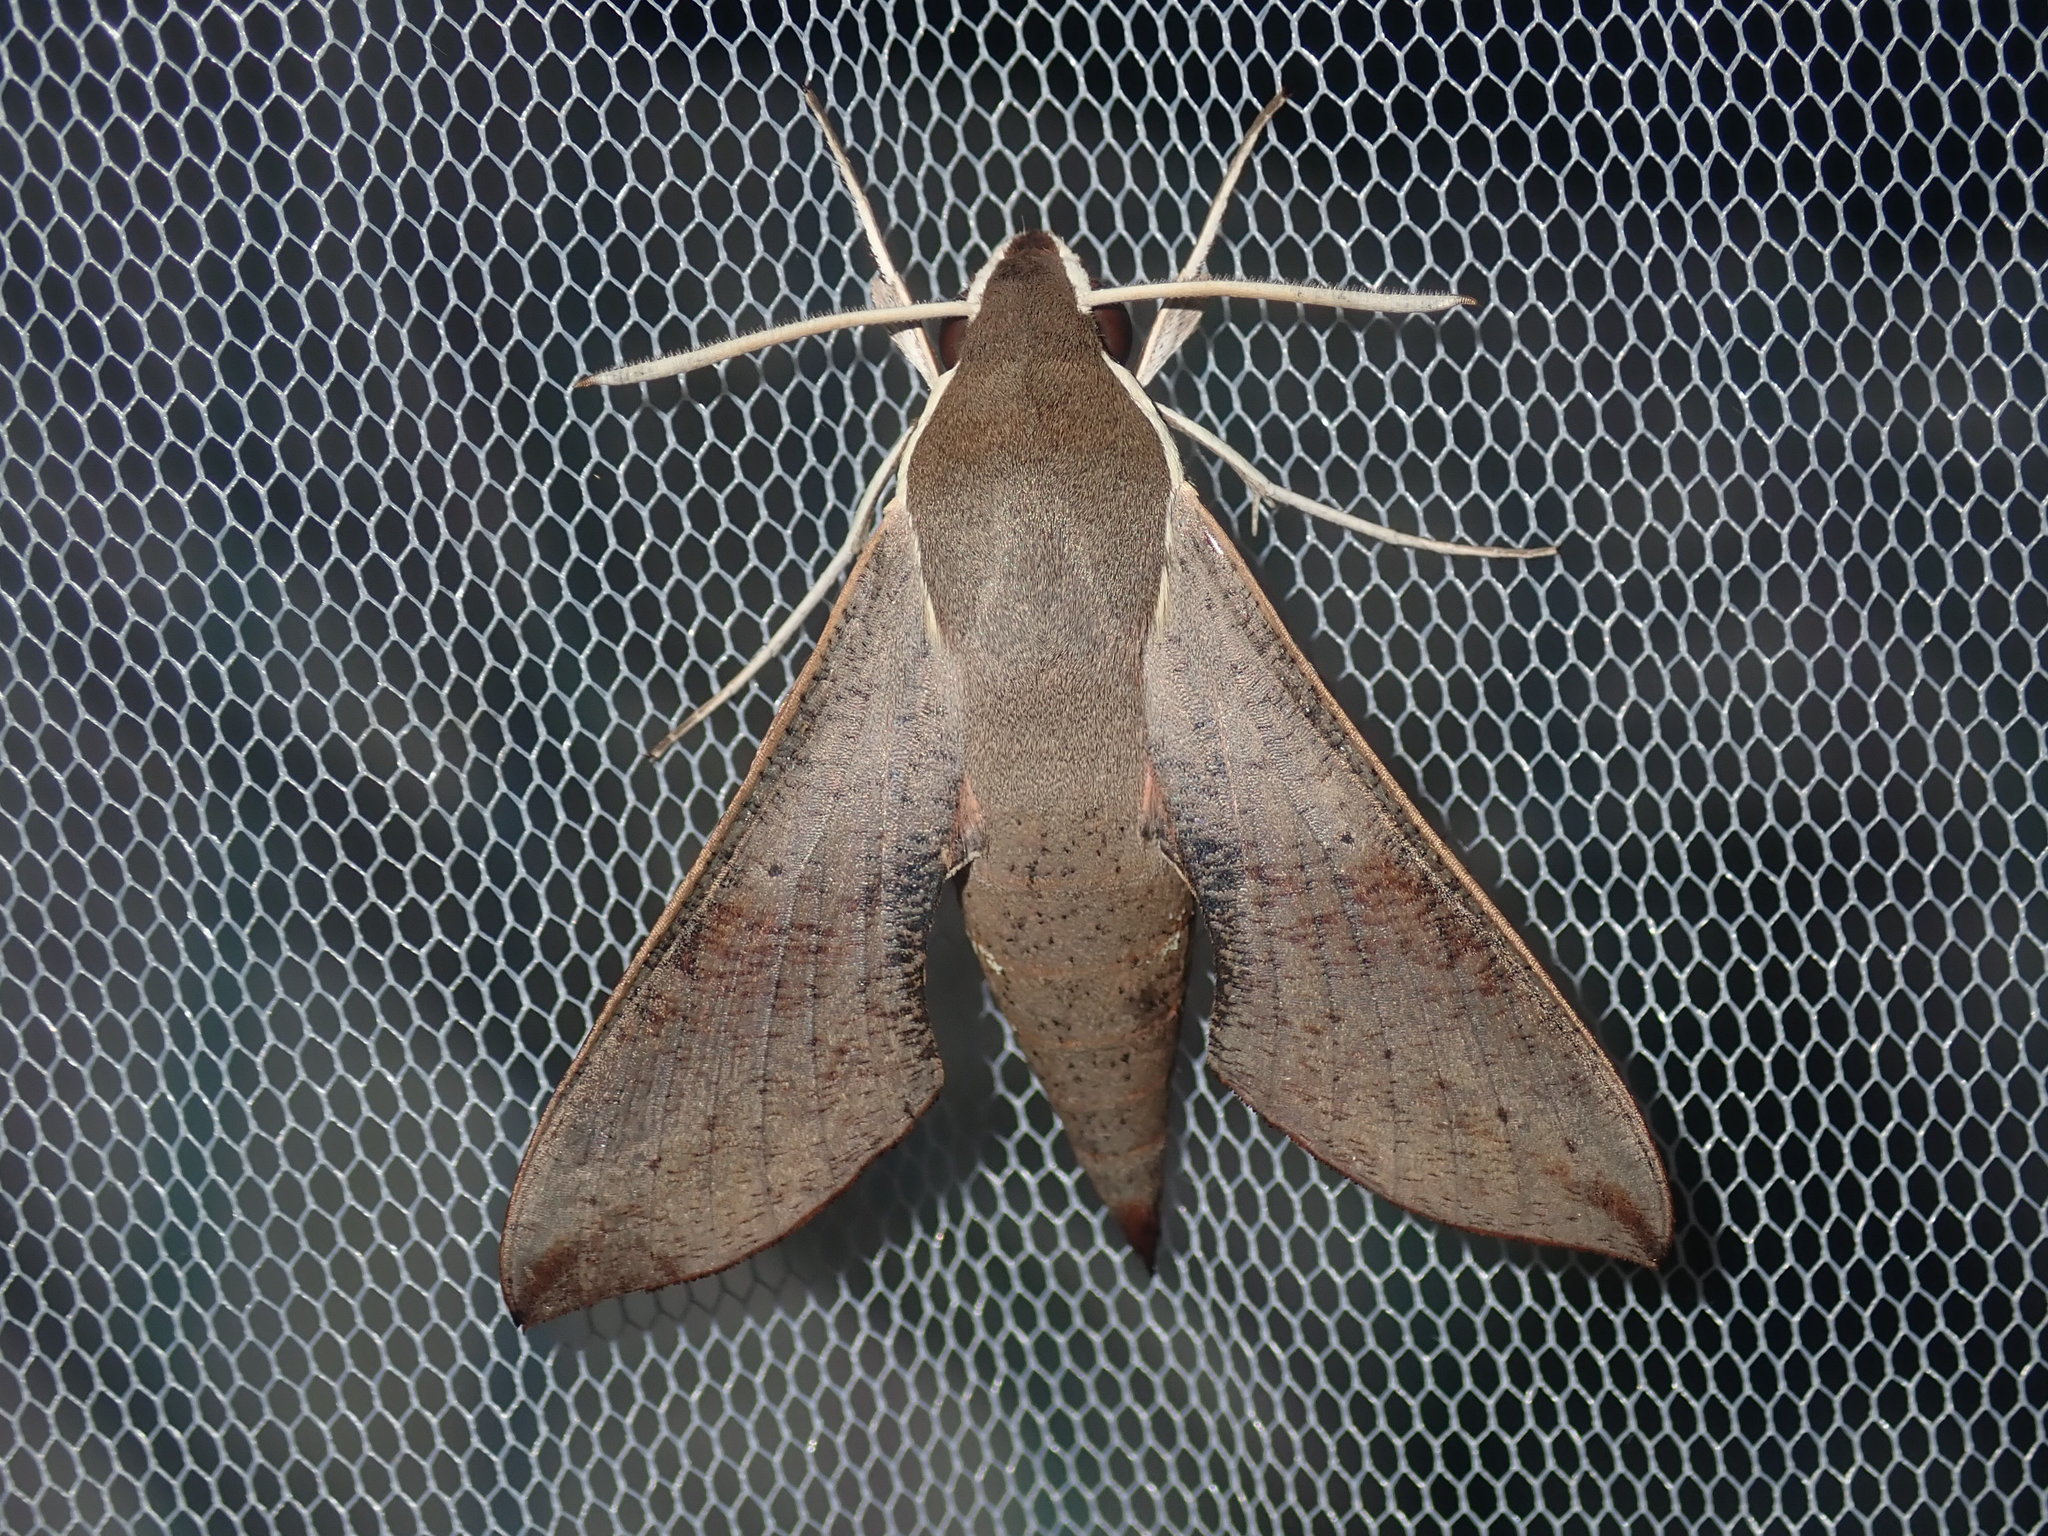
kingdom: Animalia
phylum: Arthropoda
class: Insecta
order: Lepidoptera
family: Sphingidae
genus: Hippotion
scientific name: Hippotion scrofa
